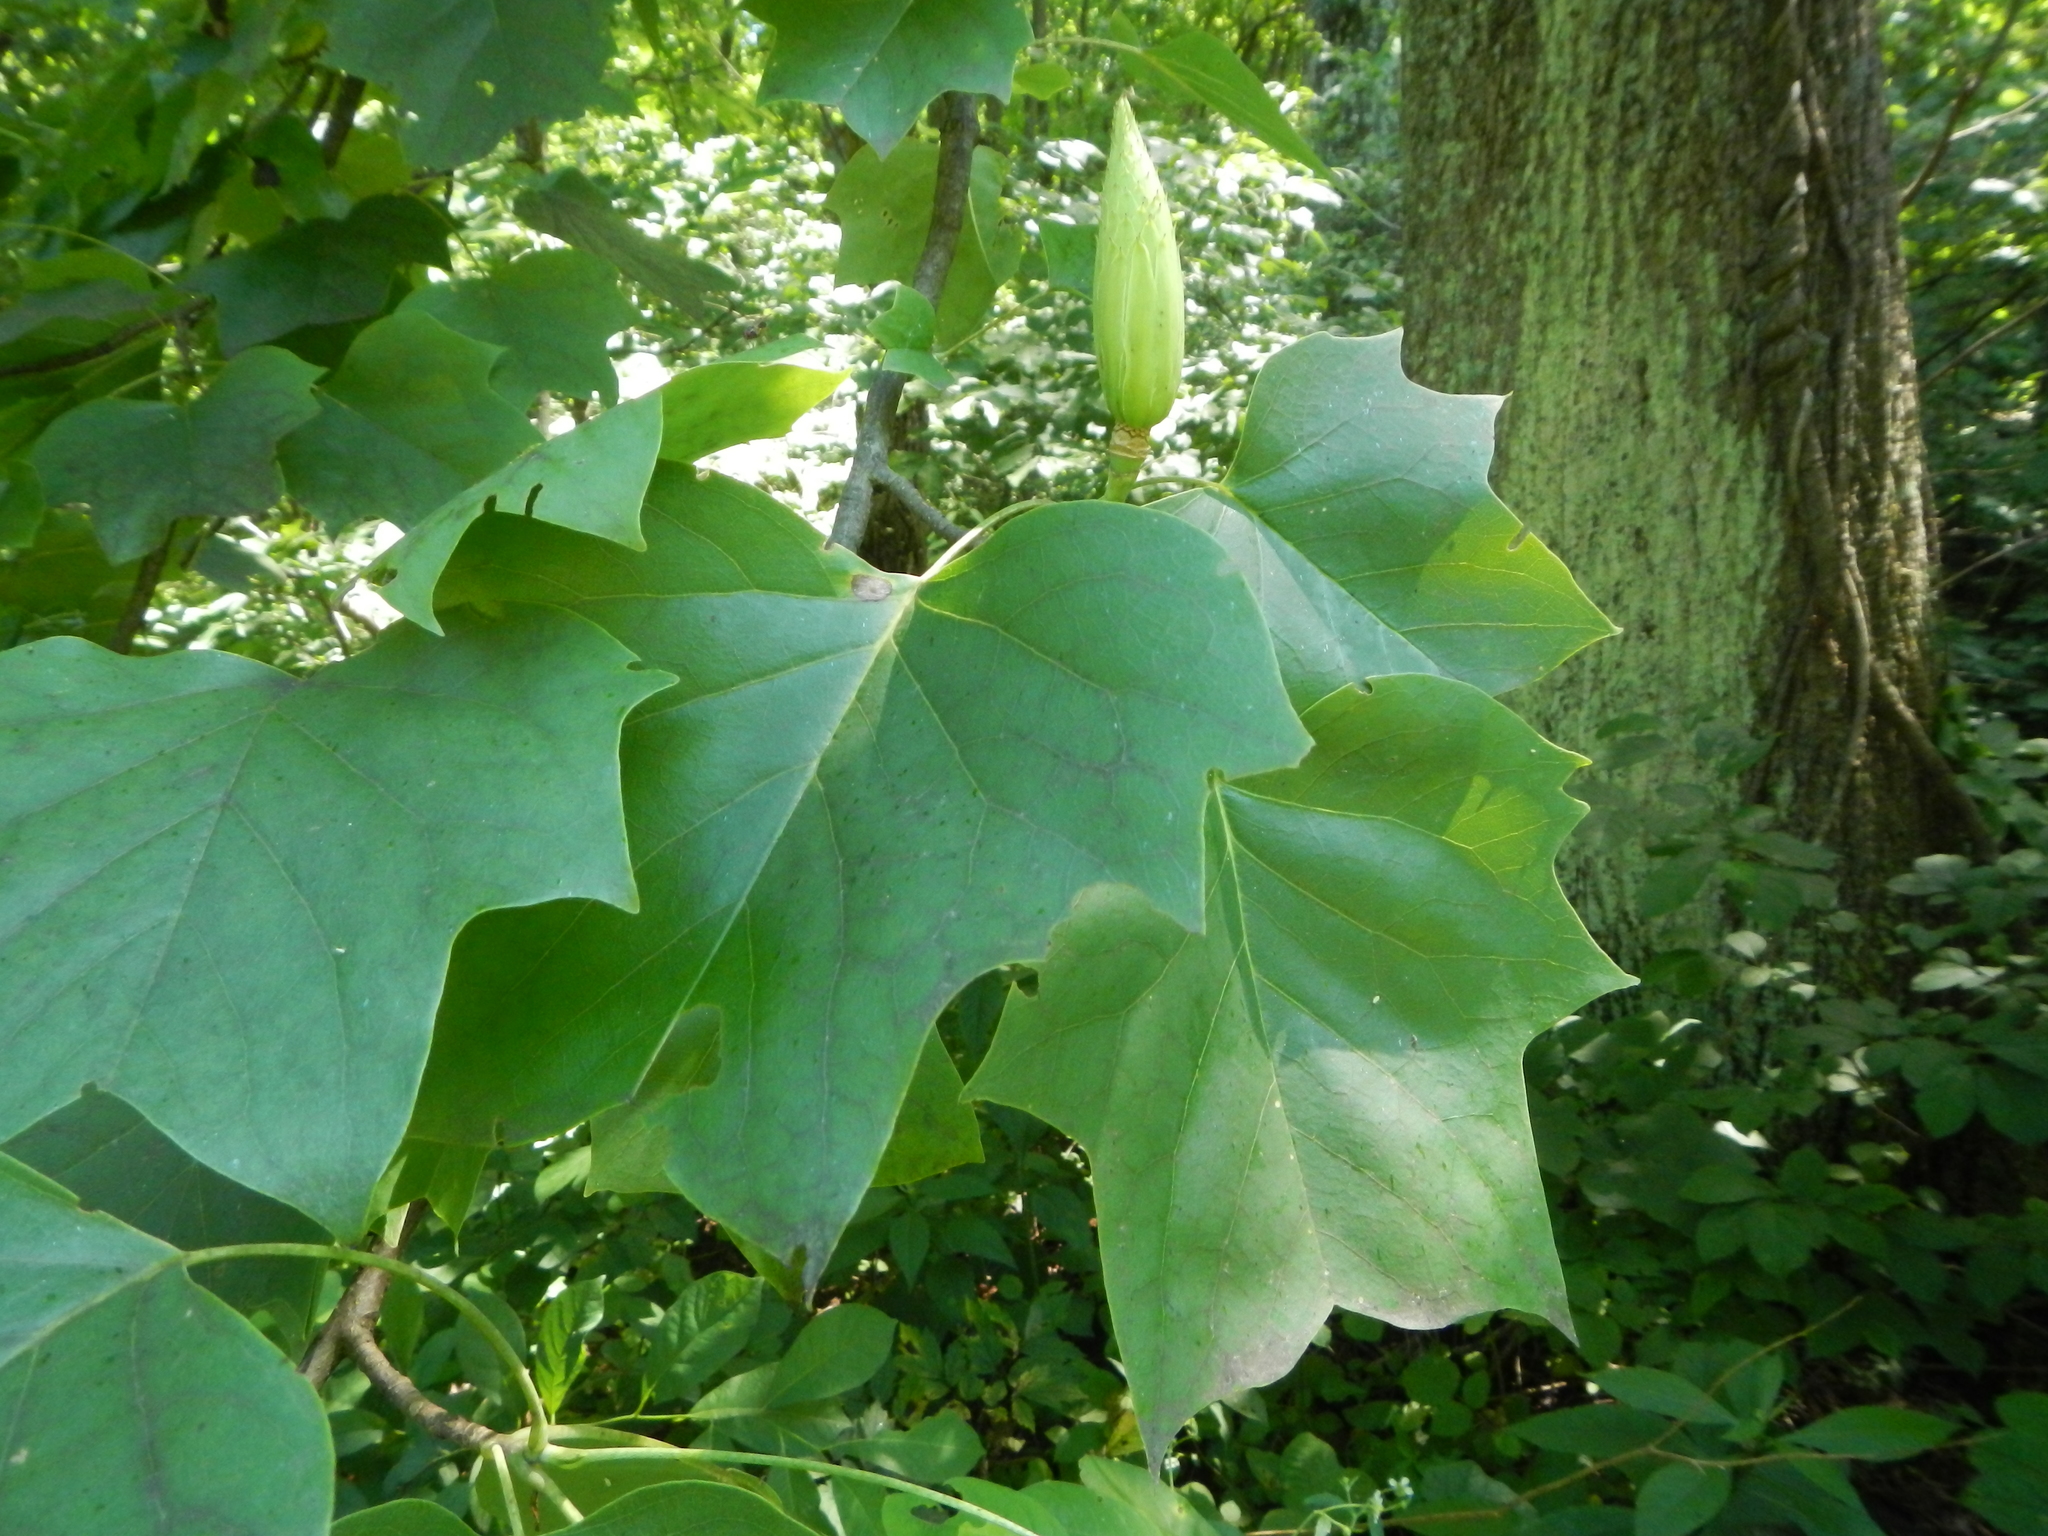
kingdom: Plantae
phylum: Tracheophyta
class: Magnoliopsida
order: Magnoliales
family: Magnoliaceae
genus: Liriodendron
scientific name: Liriodendron tulipifera
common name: Tulip tree
